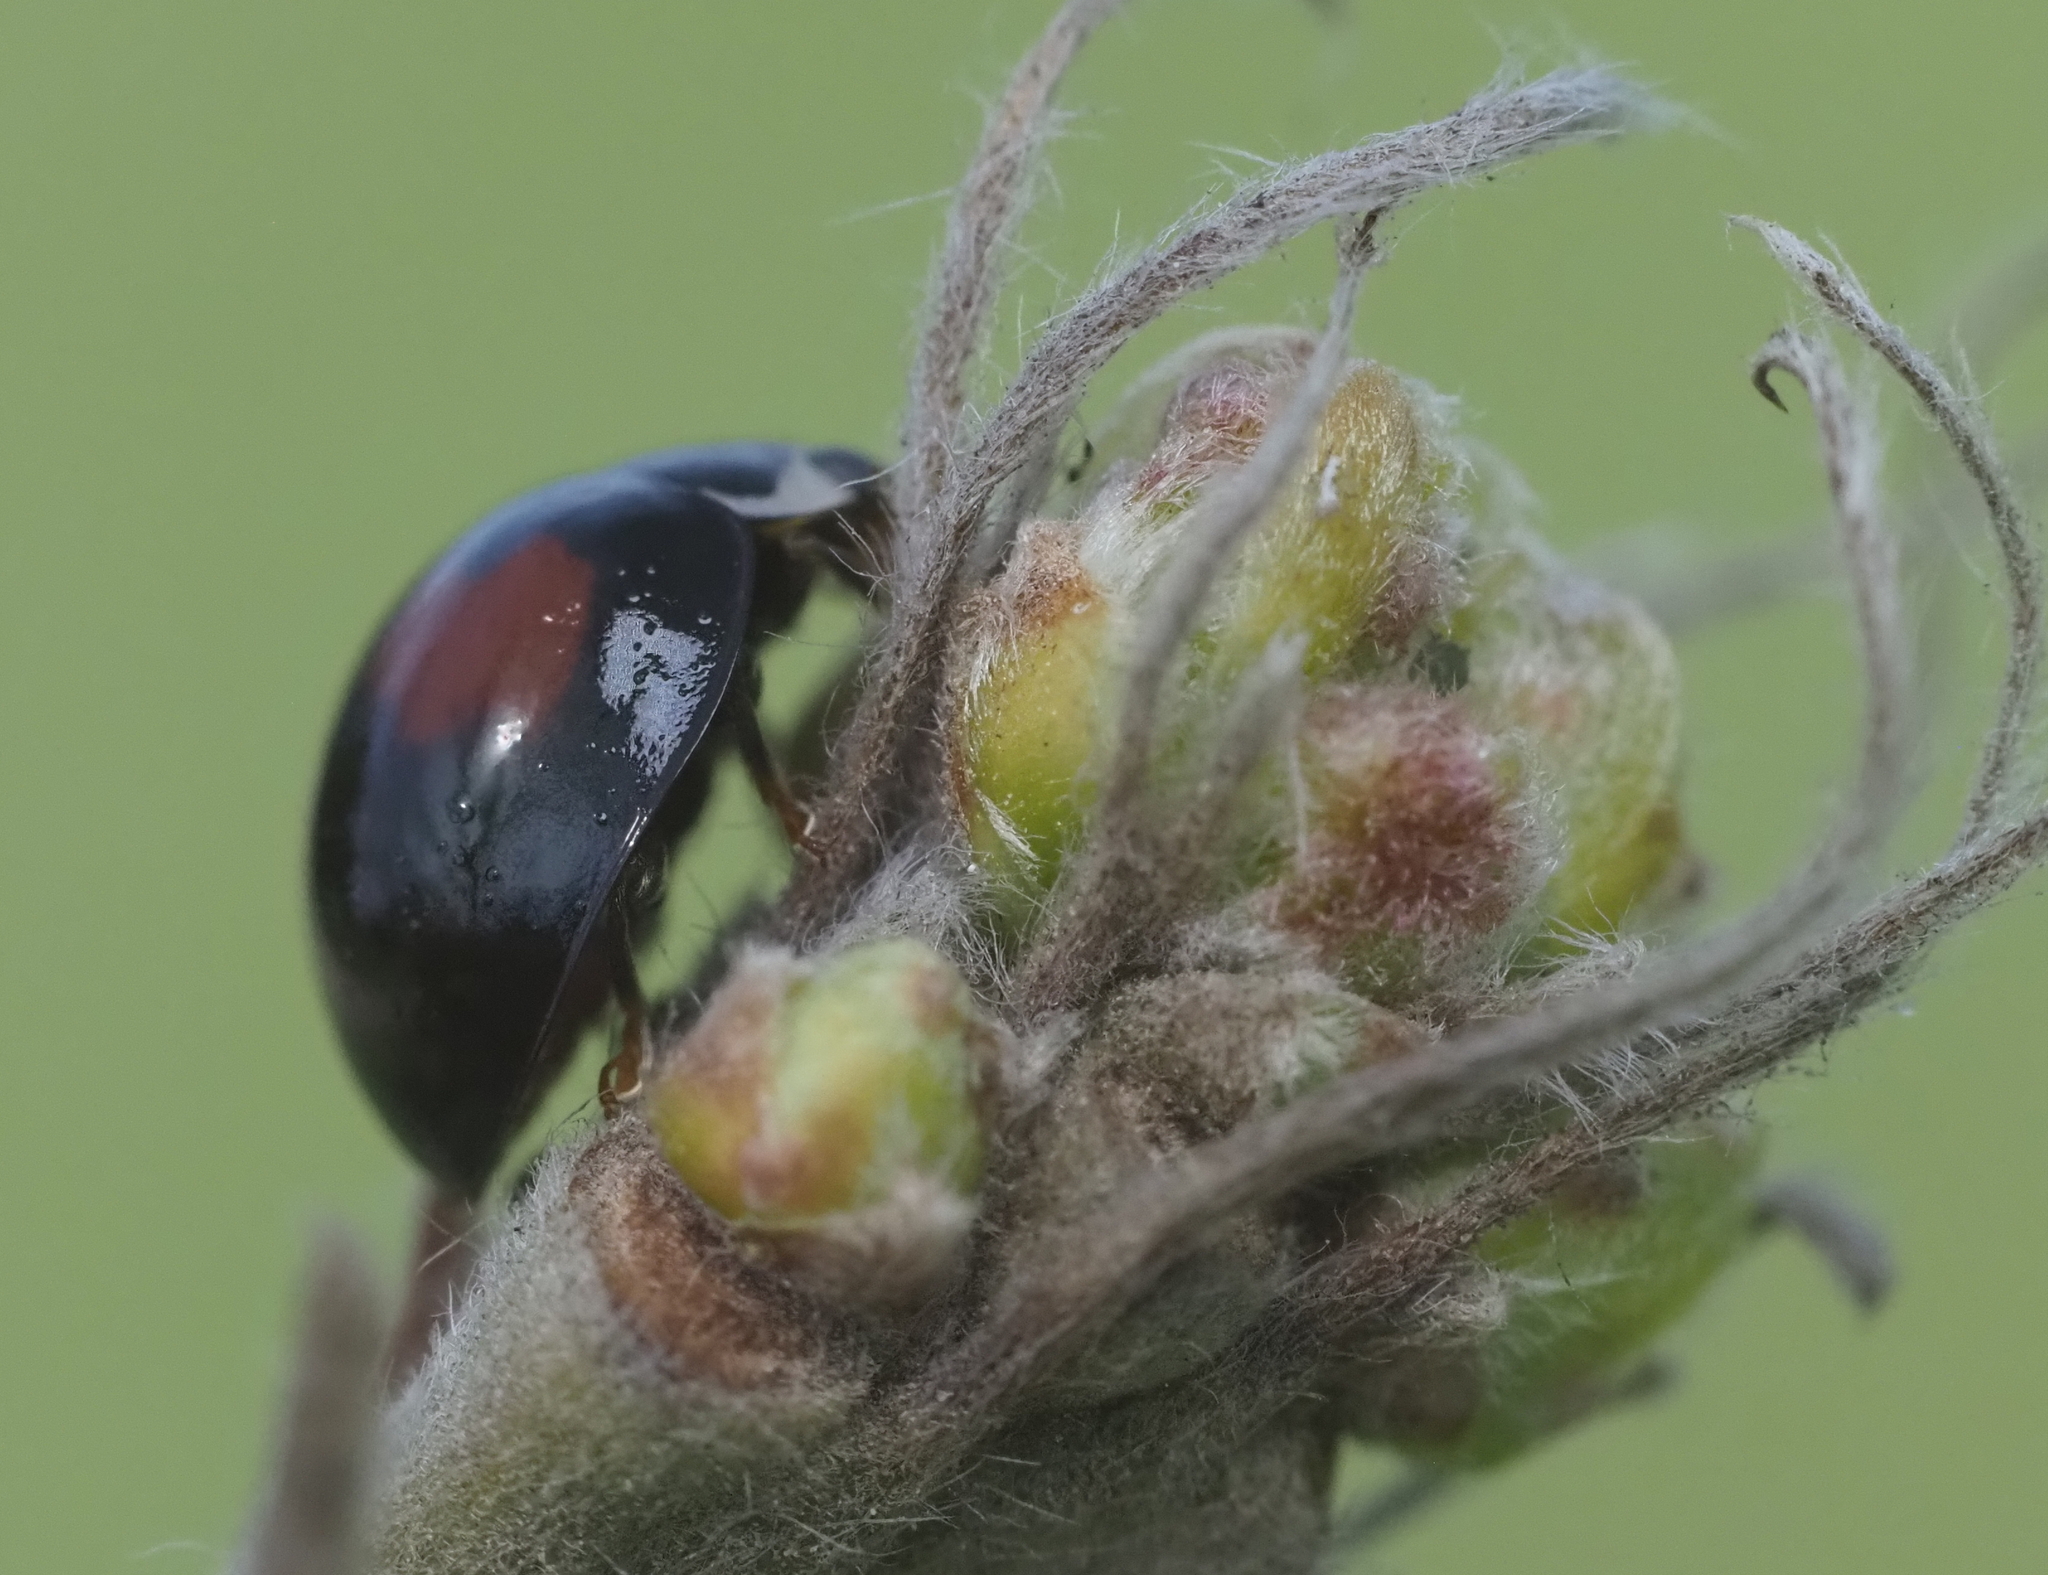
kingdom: Animalia
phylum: Arthropoda
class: Insecta
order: Coleoptera
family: Coccinellidae
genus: Olla
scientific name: Olla v-nigrum
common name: Ashy gray lady beetle
